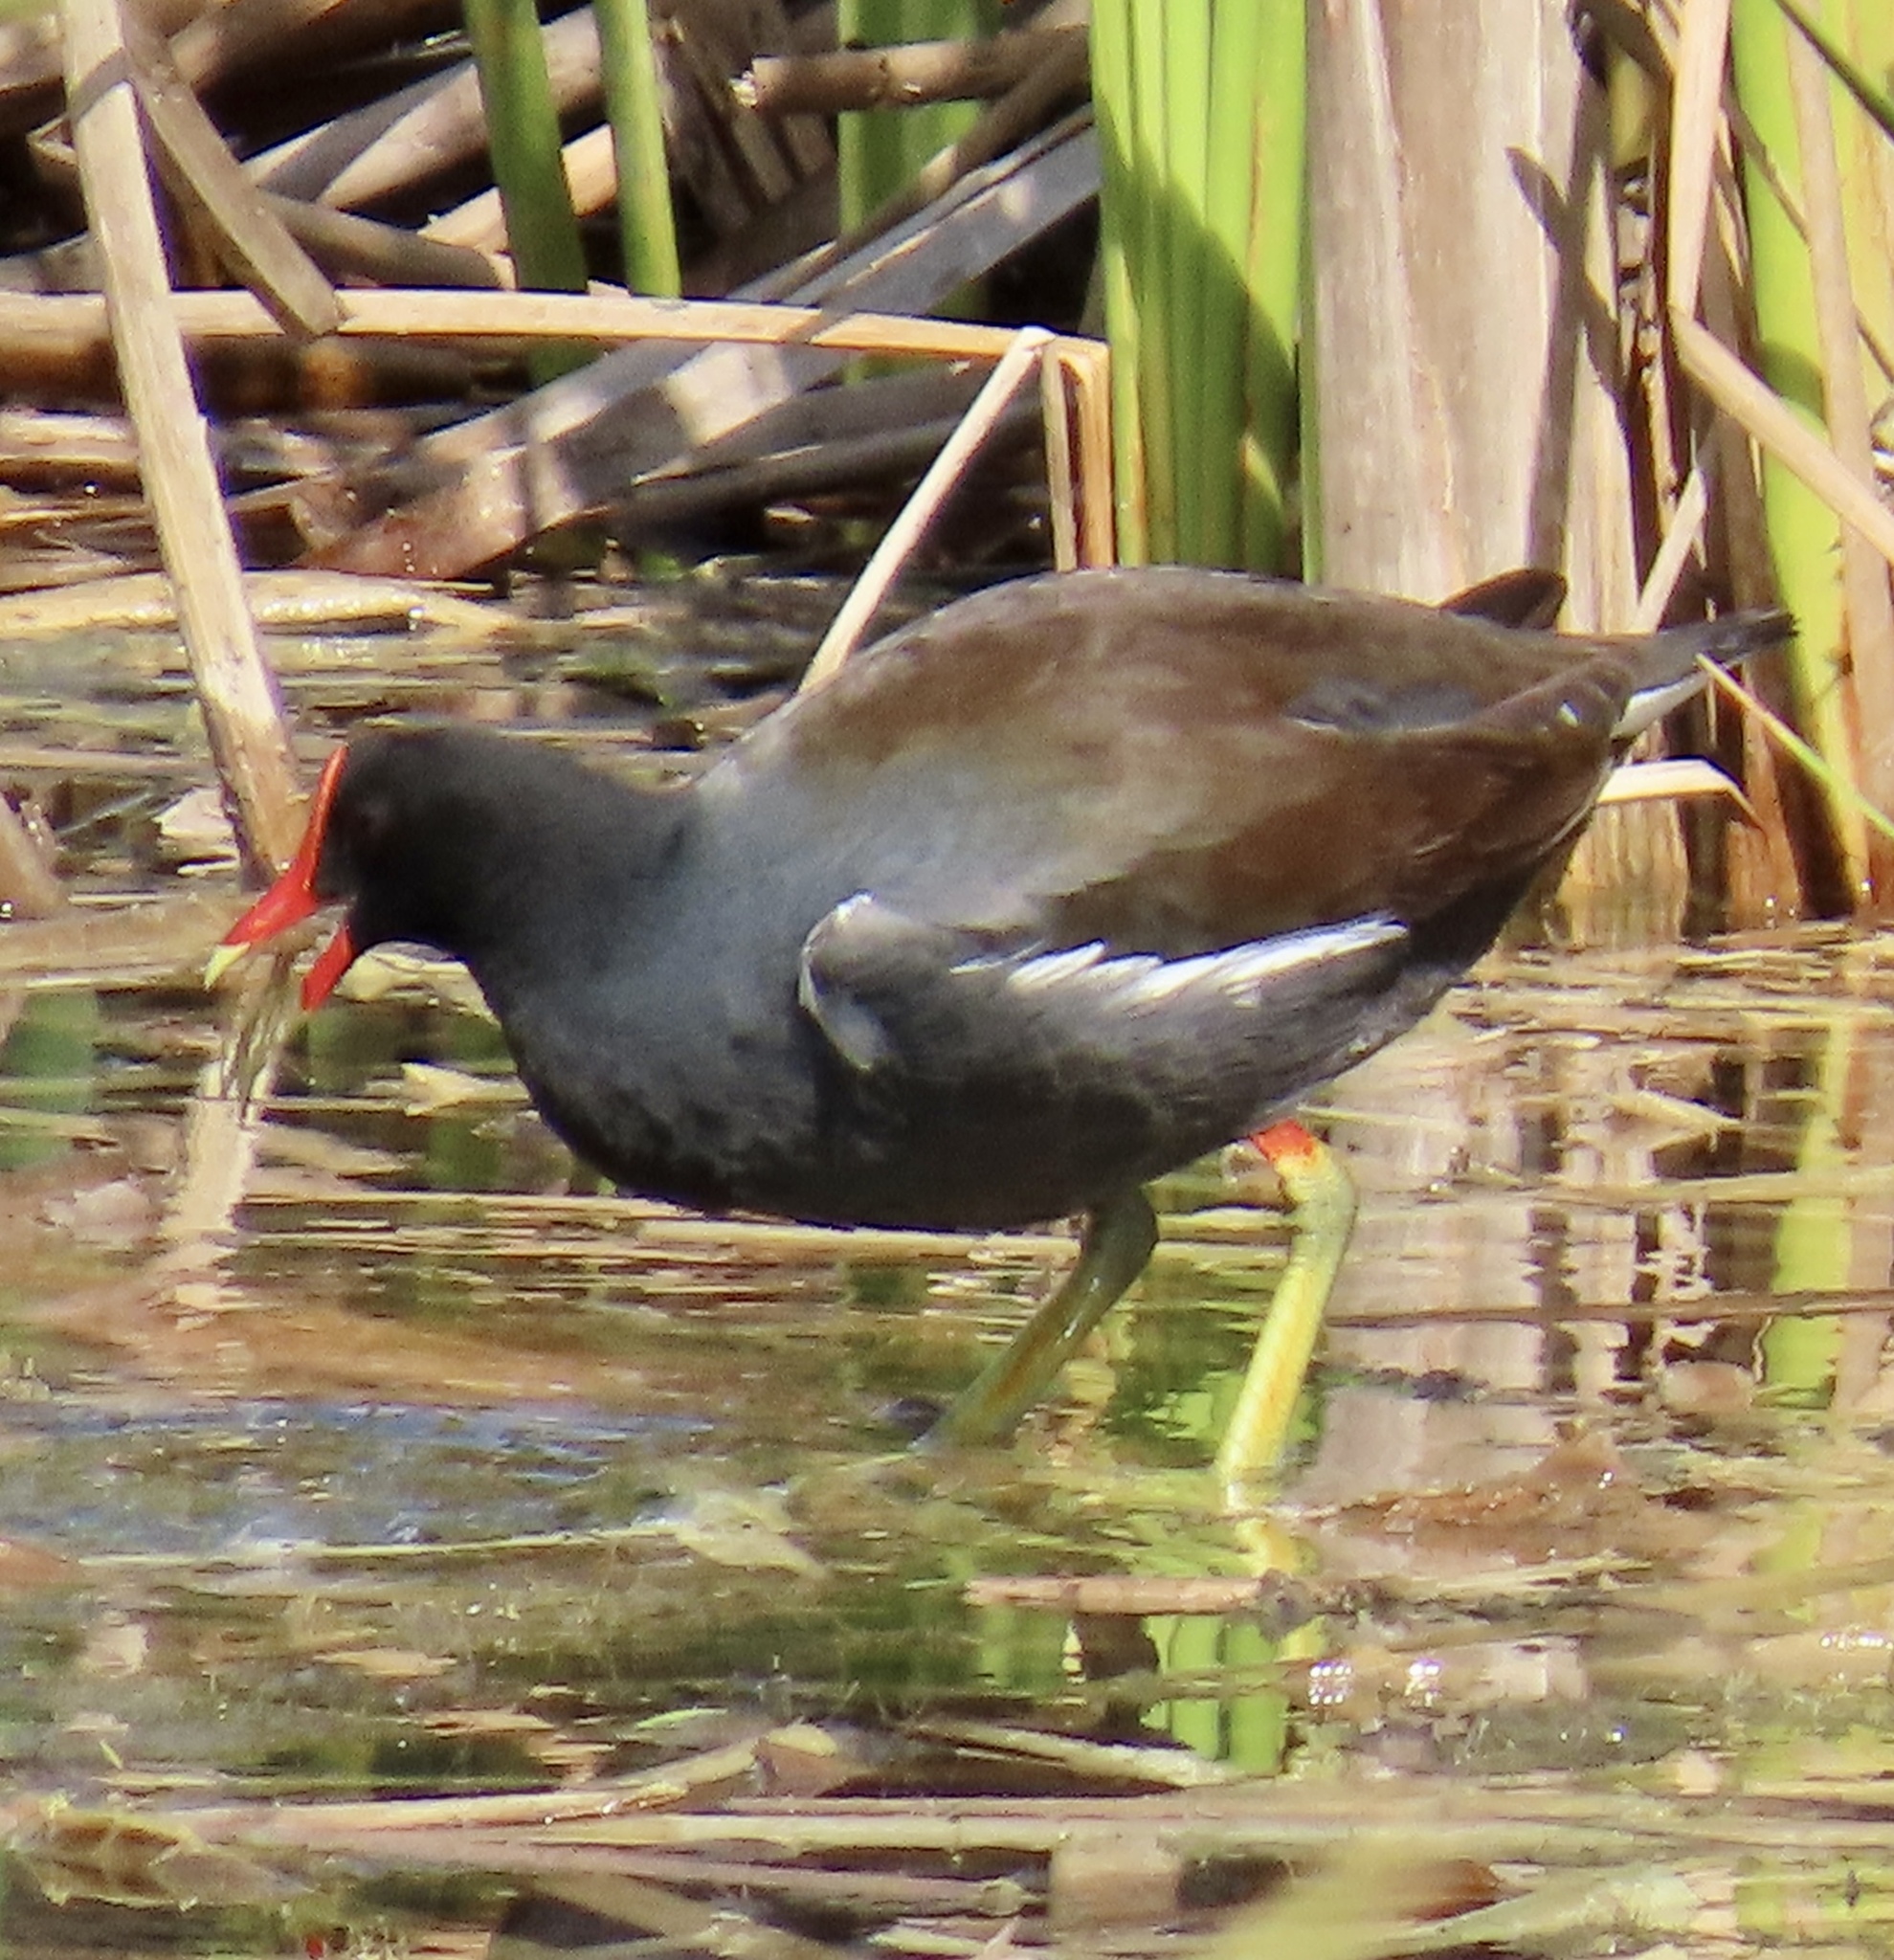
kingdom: Animalia
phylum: Chordata
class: Aves
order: Gruiformes
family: Rallidae
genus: Gallinula
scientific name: Gallinula chloropus
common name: Common moorhen
